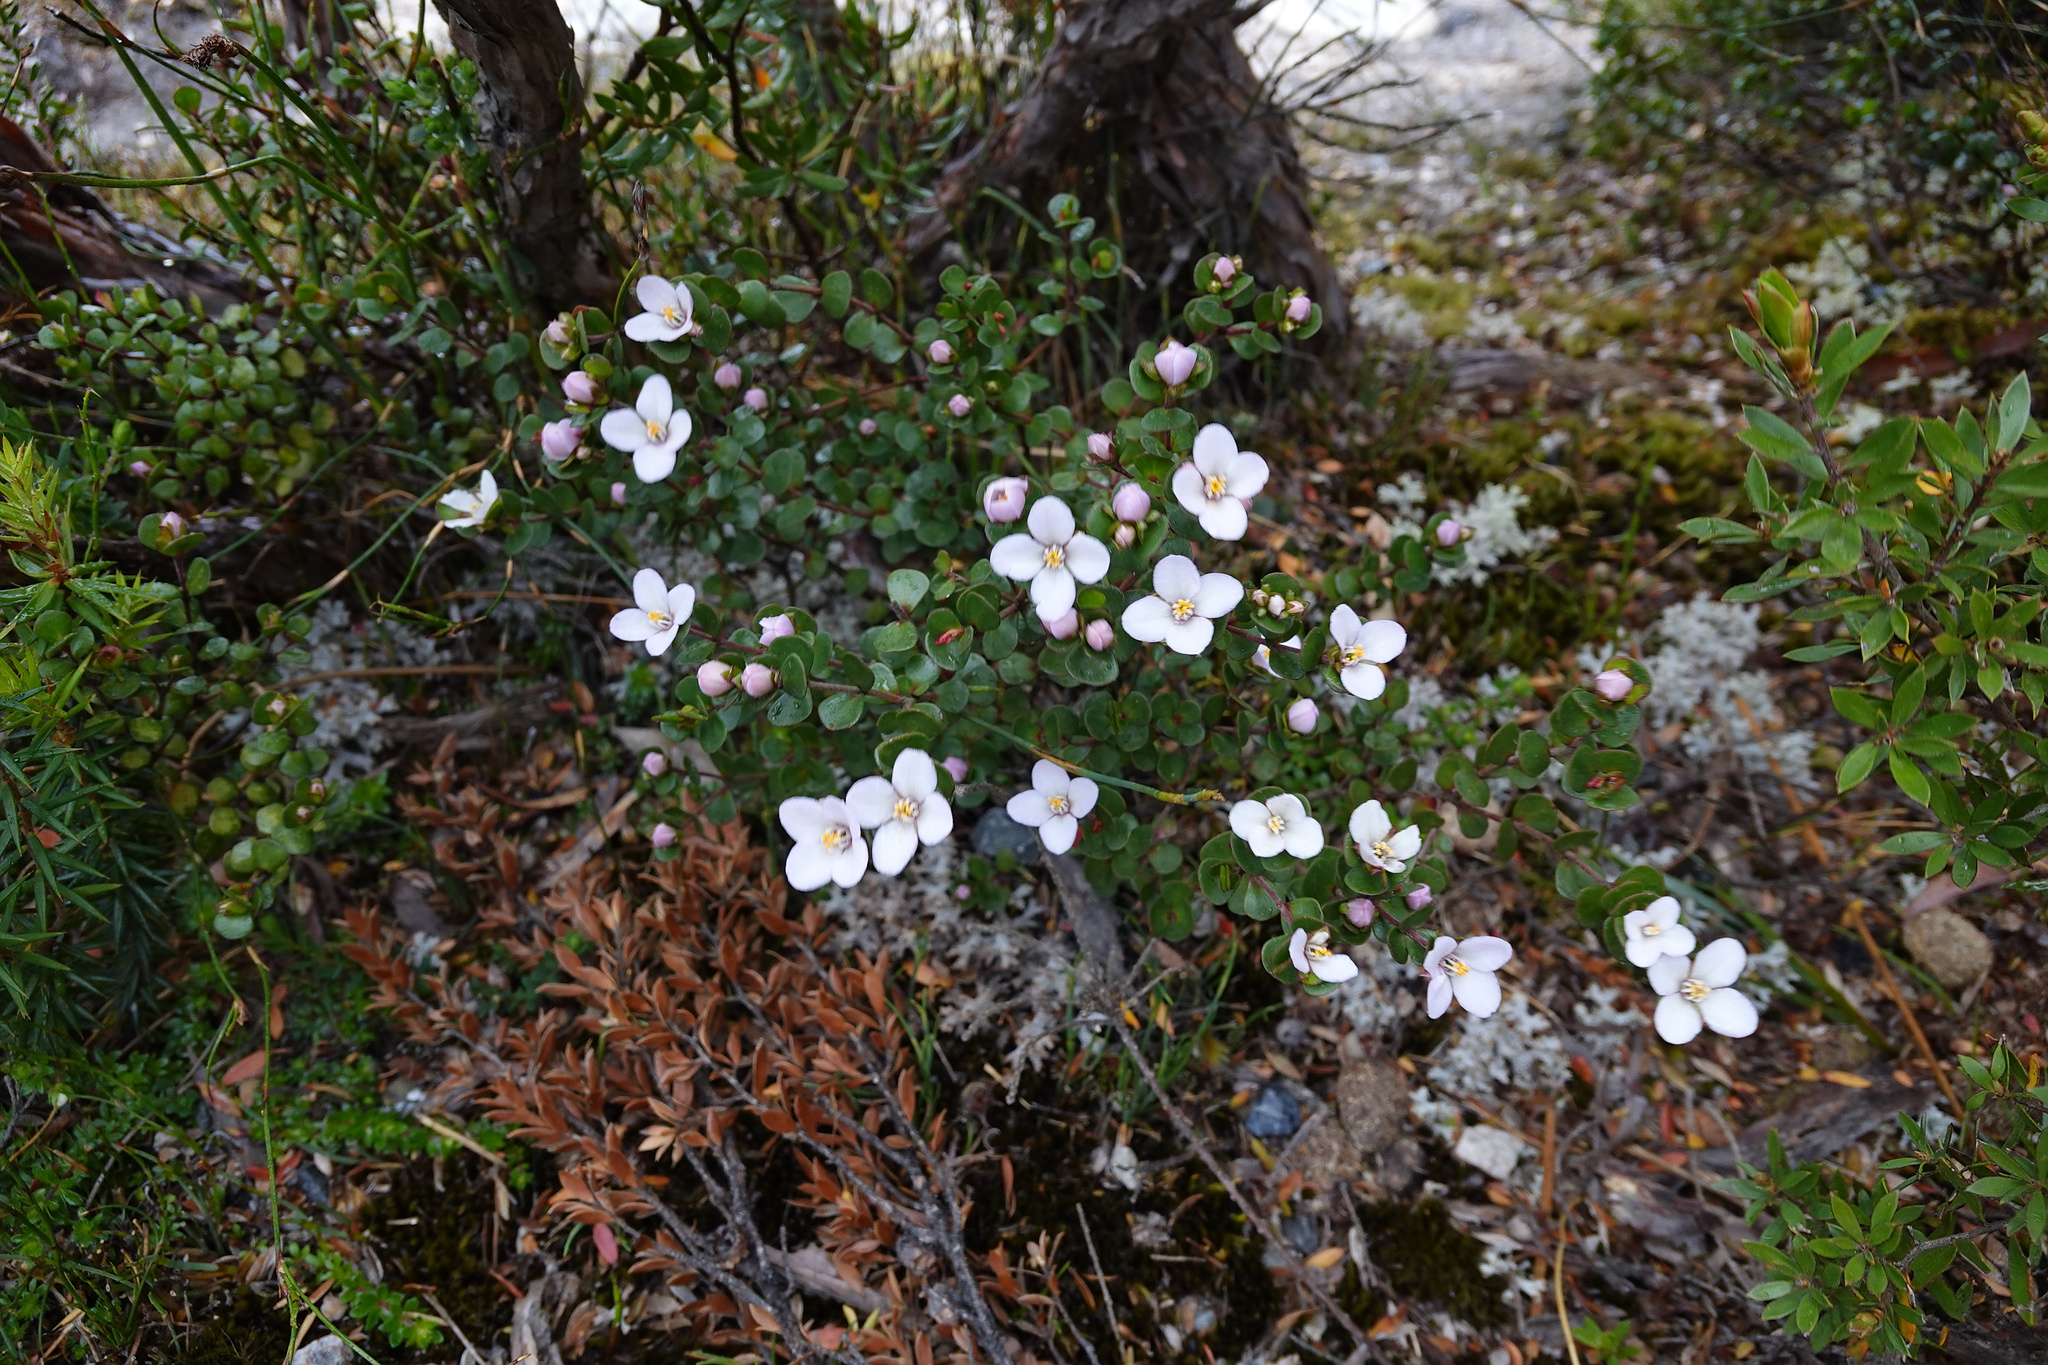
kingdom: Plantae
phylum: Tracheophyta
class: Magnoliopsida
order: Sapindales
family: Rutaceae
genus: Boronia
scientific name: Boronia rhomboidea
